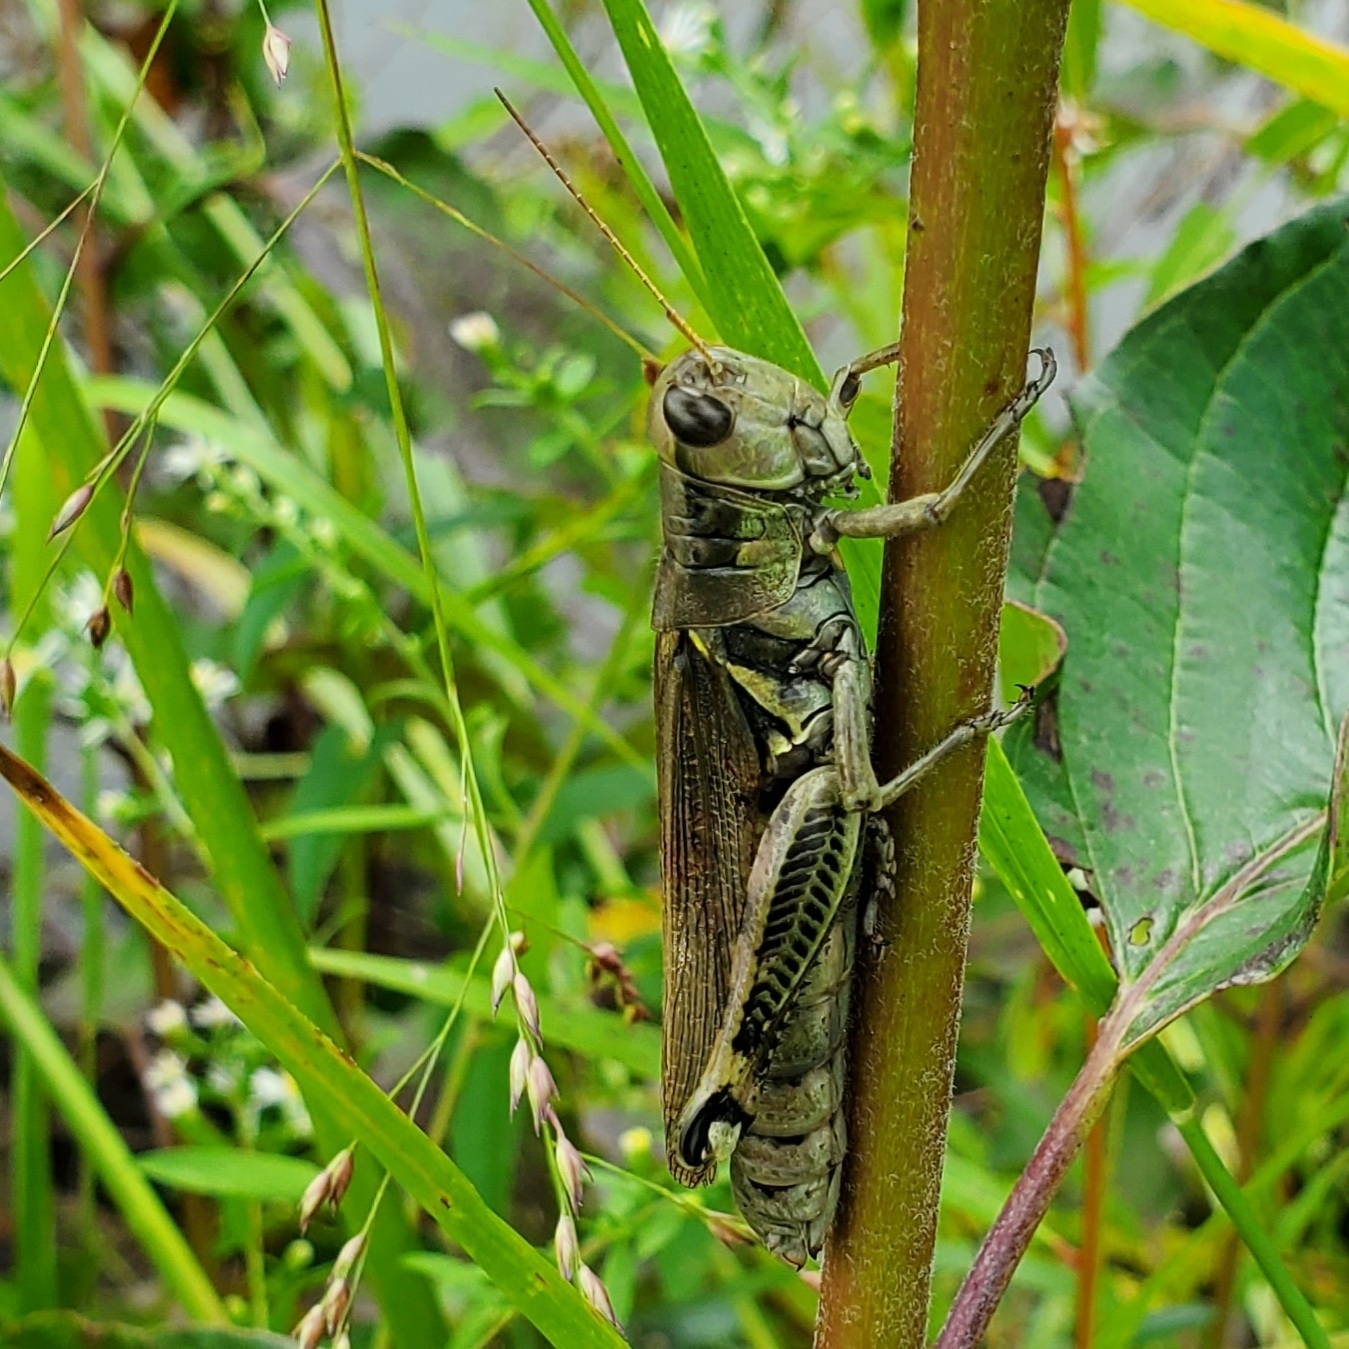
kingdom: Animalia
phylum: Arthropoda
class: Insecta
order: Orthoptera
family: Acrididae
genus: Melanoplus
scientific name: Melanoplus differentialis
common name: Differential grasshopper
